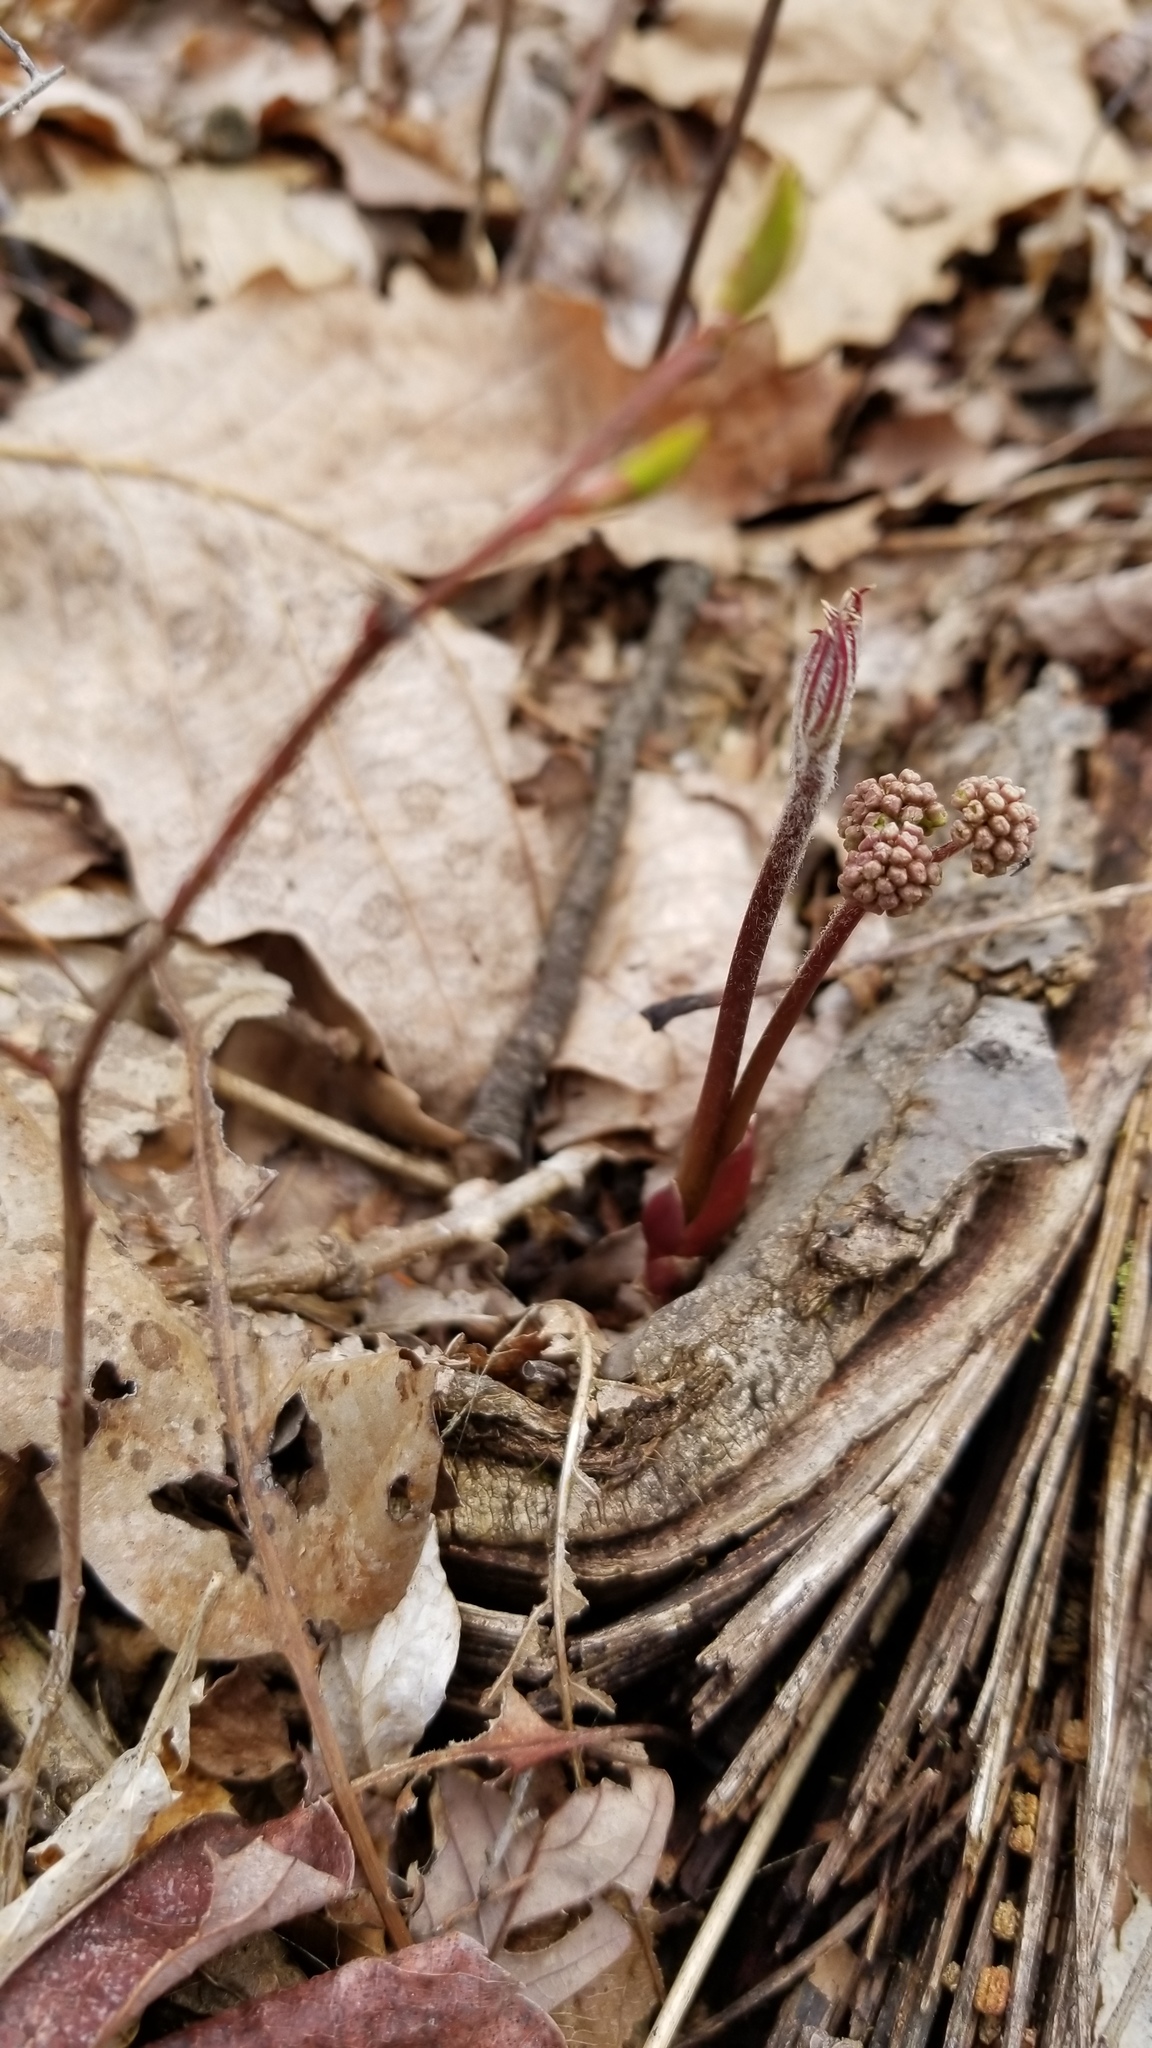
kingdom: Plantae
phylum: Tracheophyta
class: Magnoliopsida
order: Apiales
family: Araliaceae
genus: Aralia
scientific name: Aralia nudicaulis
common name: Wild sarsaparilla
